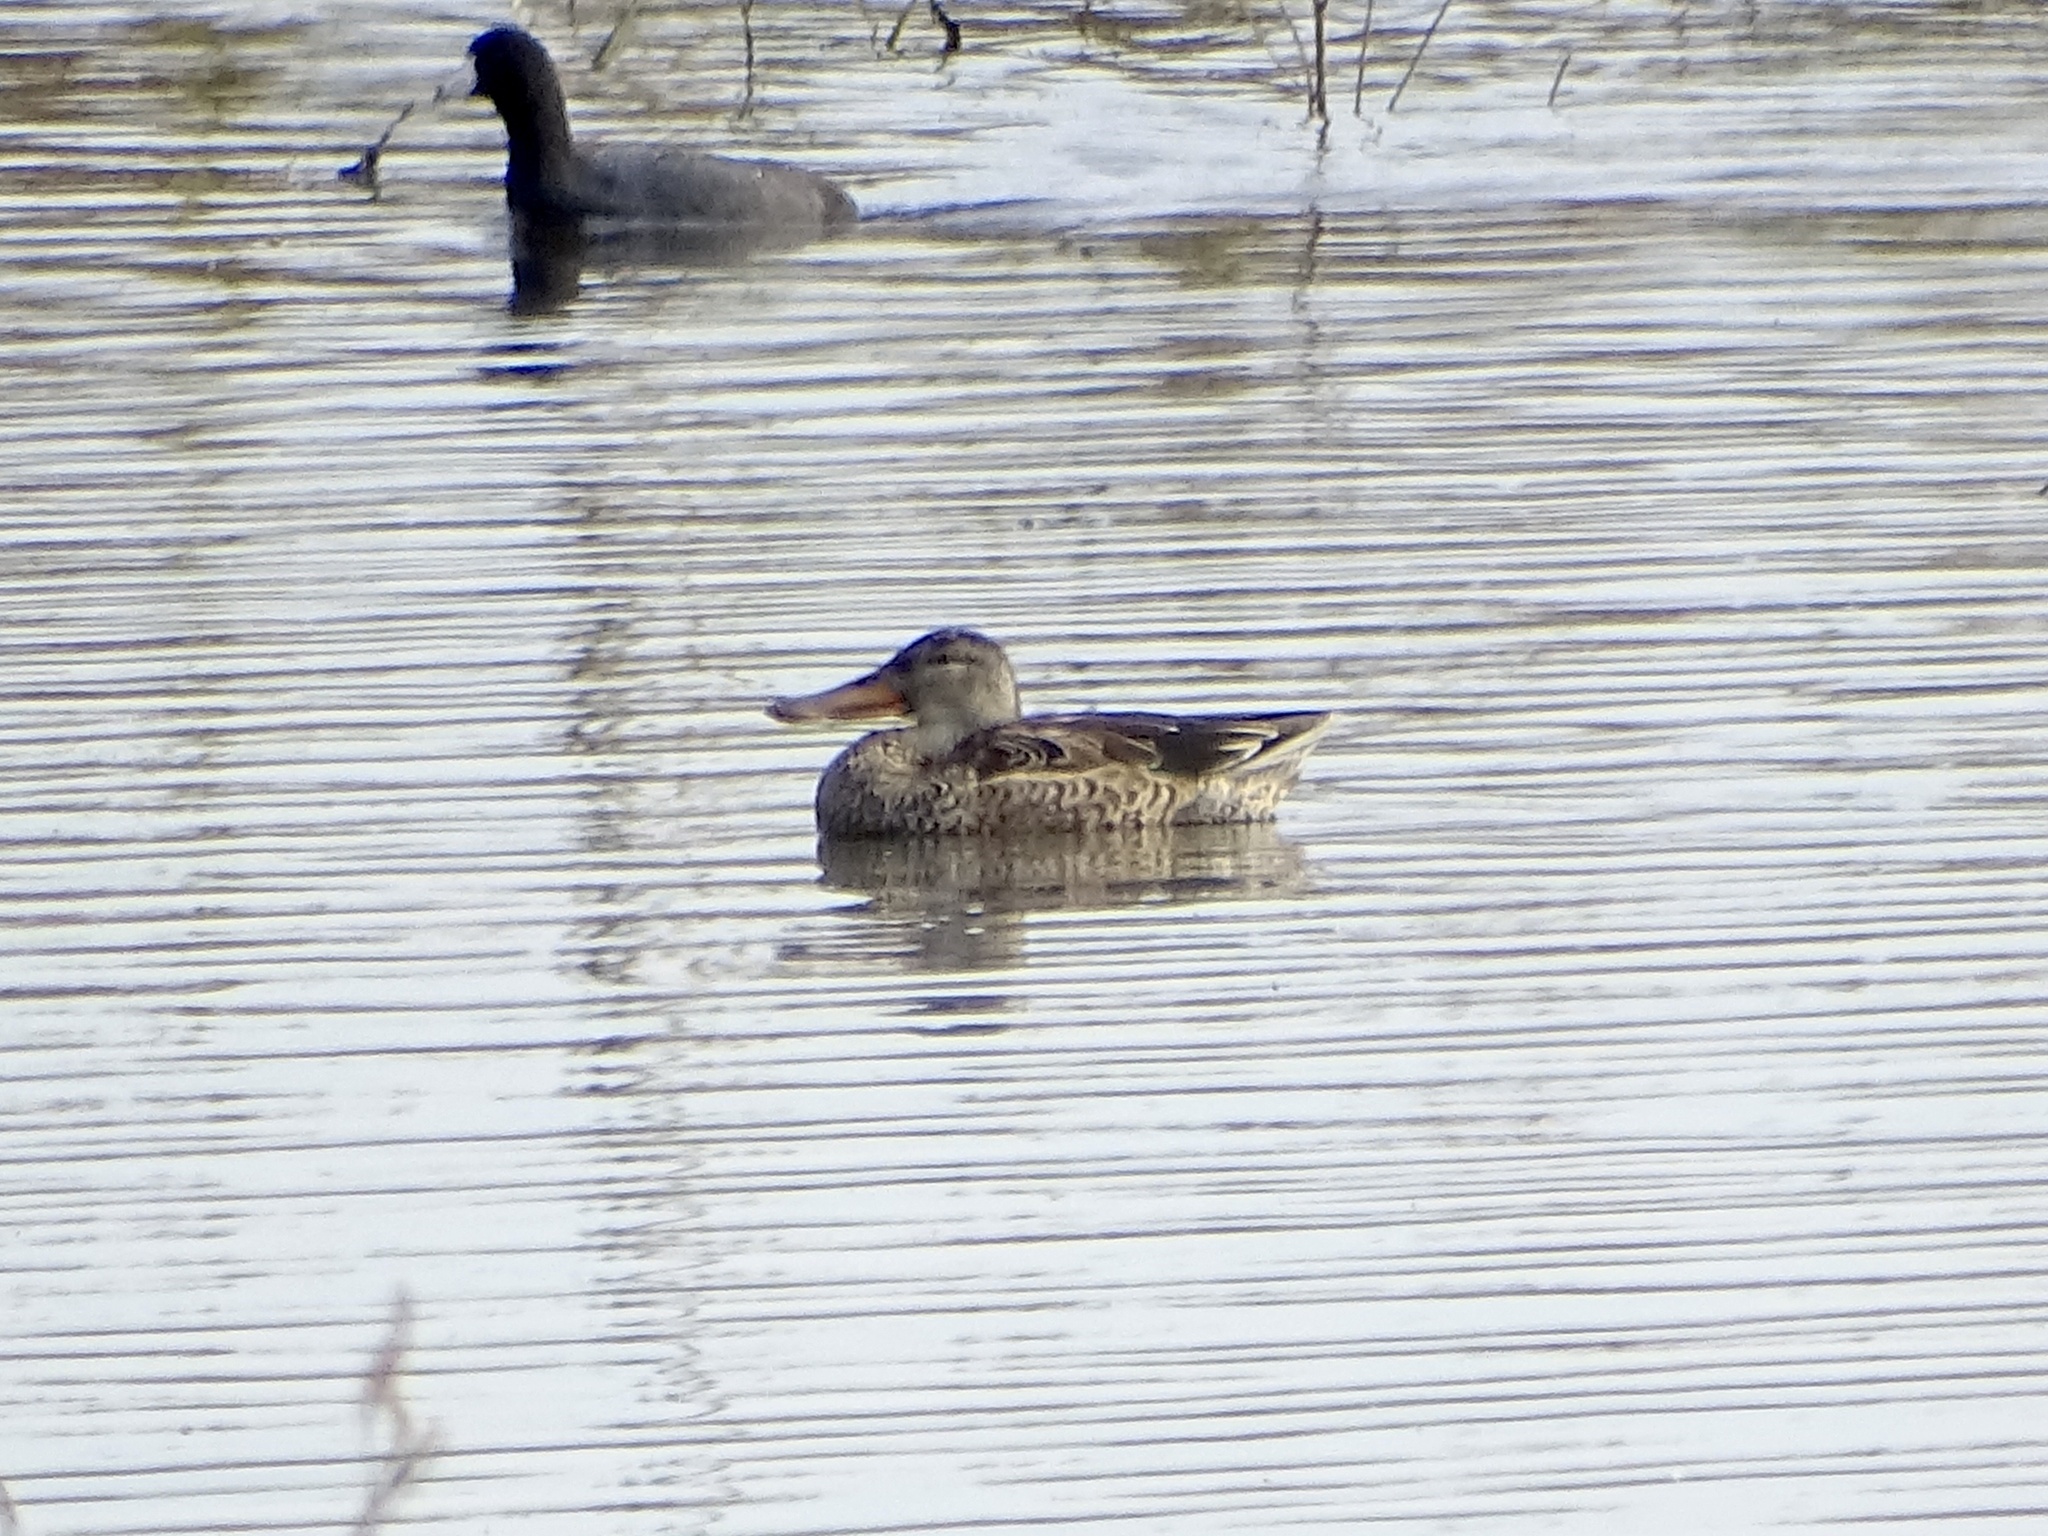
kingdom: Animalia
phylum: Chordata
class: Aves
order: Anseriformes
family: Anatidae
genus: Spatula
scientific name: Spatula clypeata
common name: Northern shoveler
